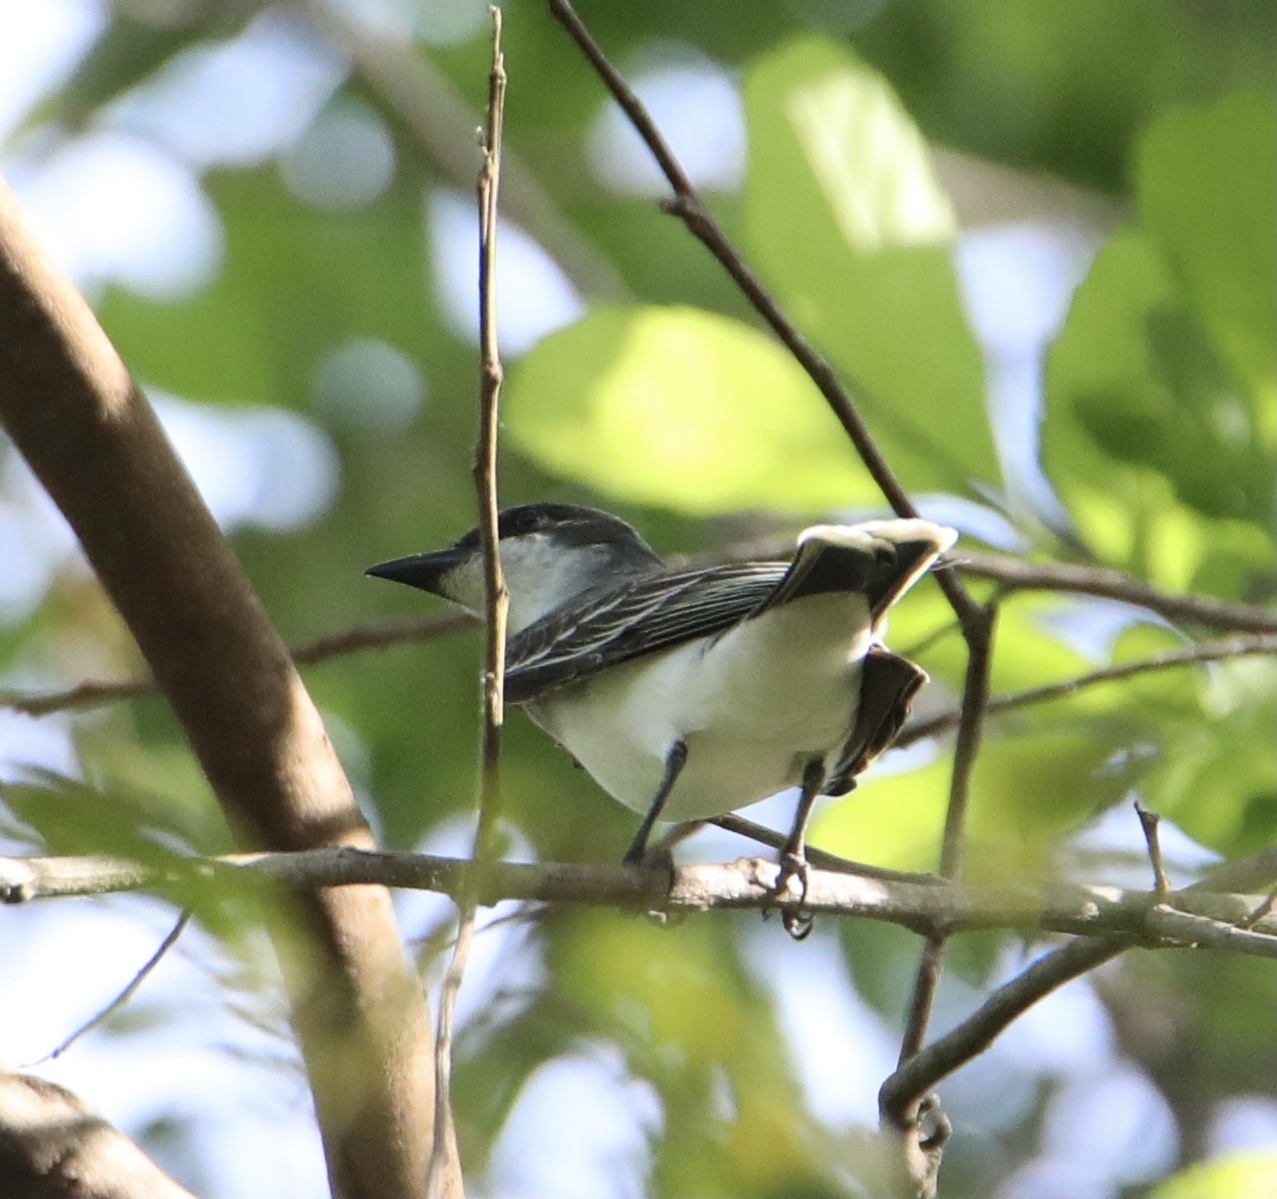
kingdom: Animalia
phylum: Chordata
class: Aves
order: Passeriformes
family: Tyrannidae
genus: Tyrannus
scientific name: Tyrannus tyrannus
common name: Eastern kingbird
